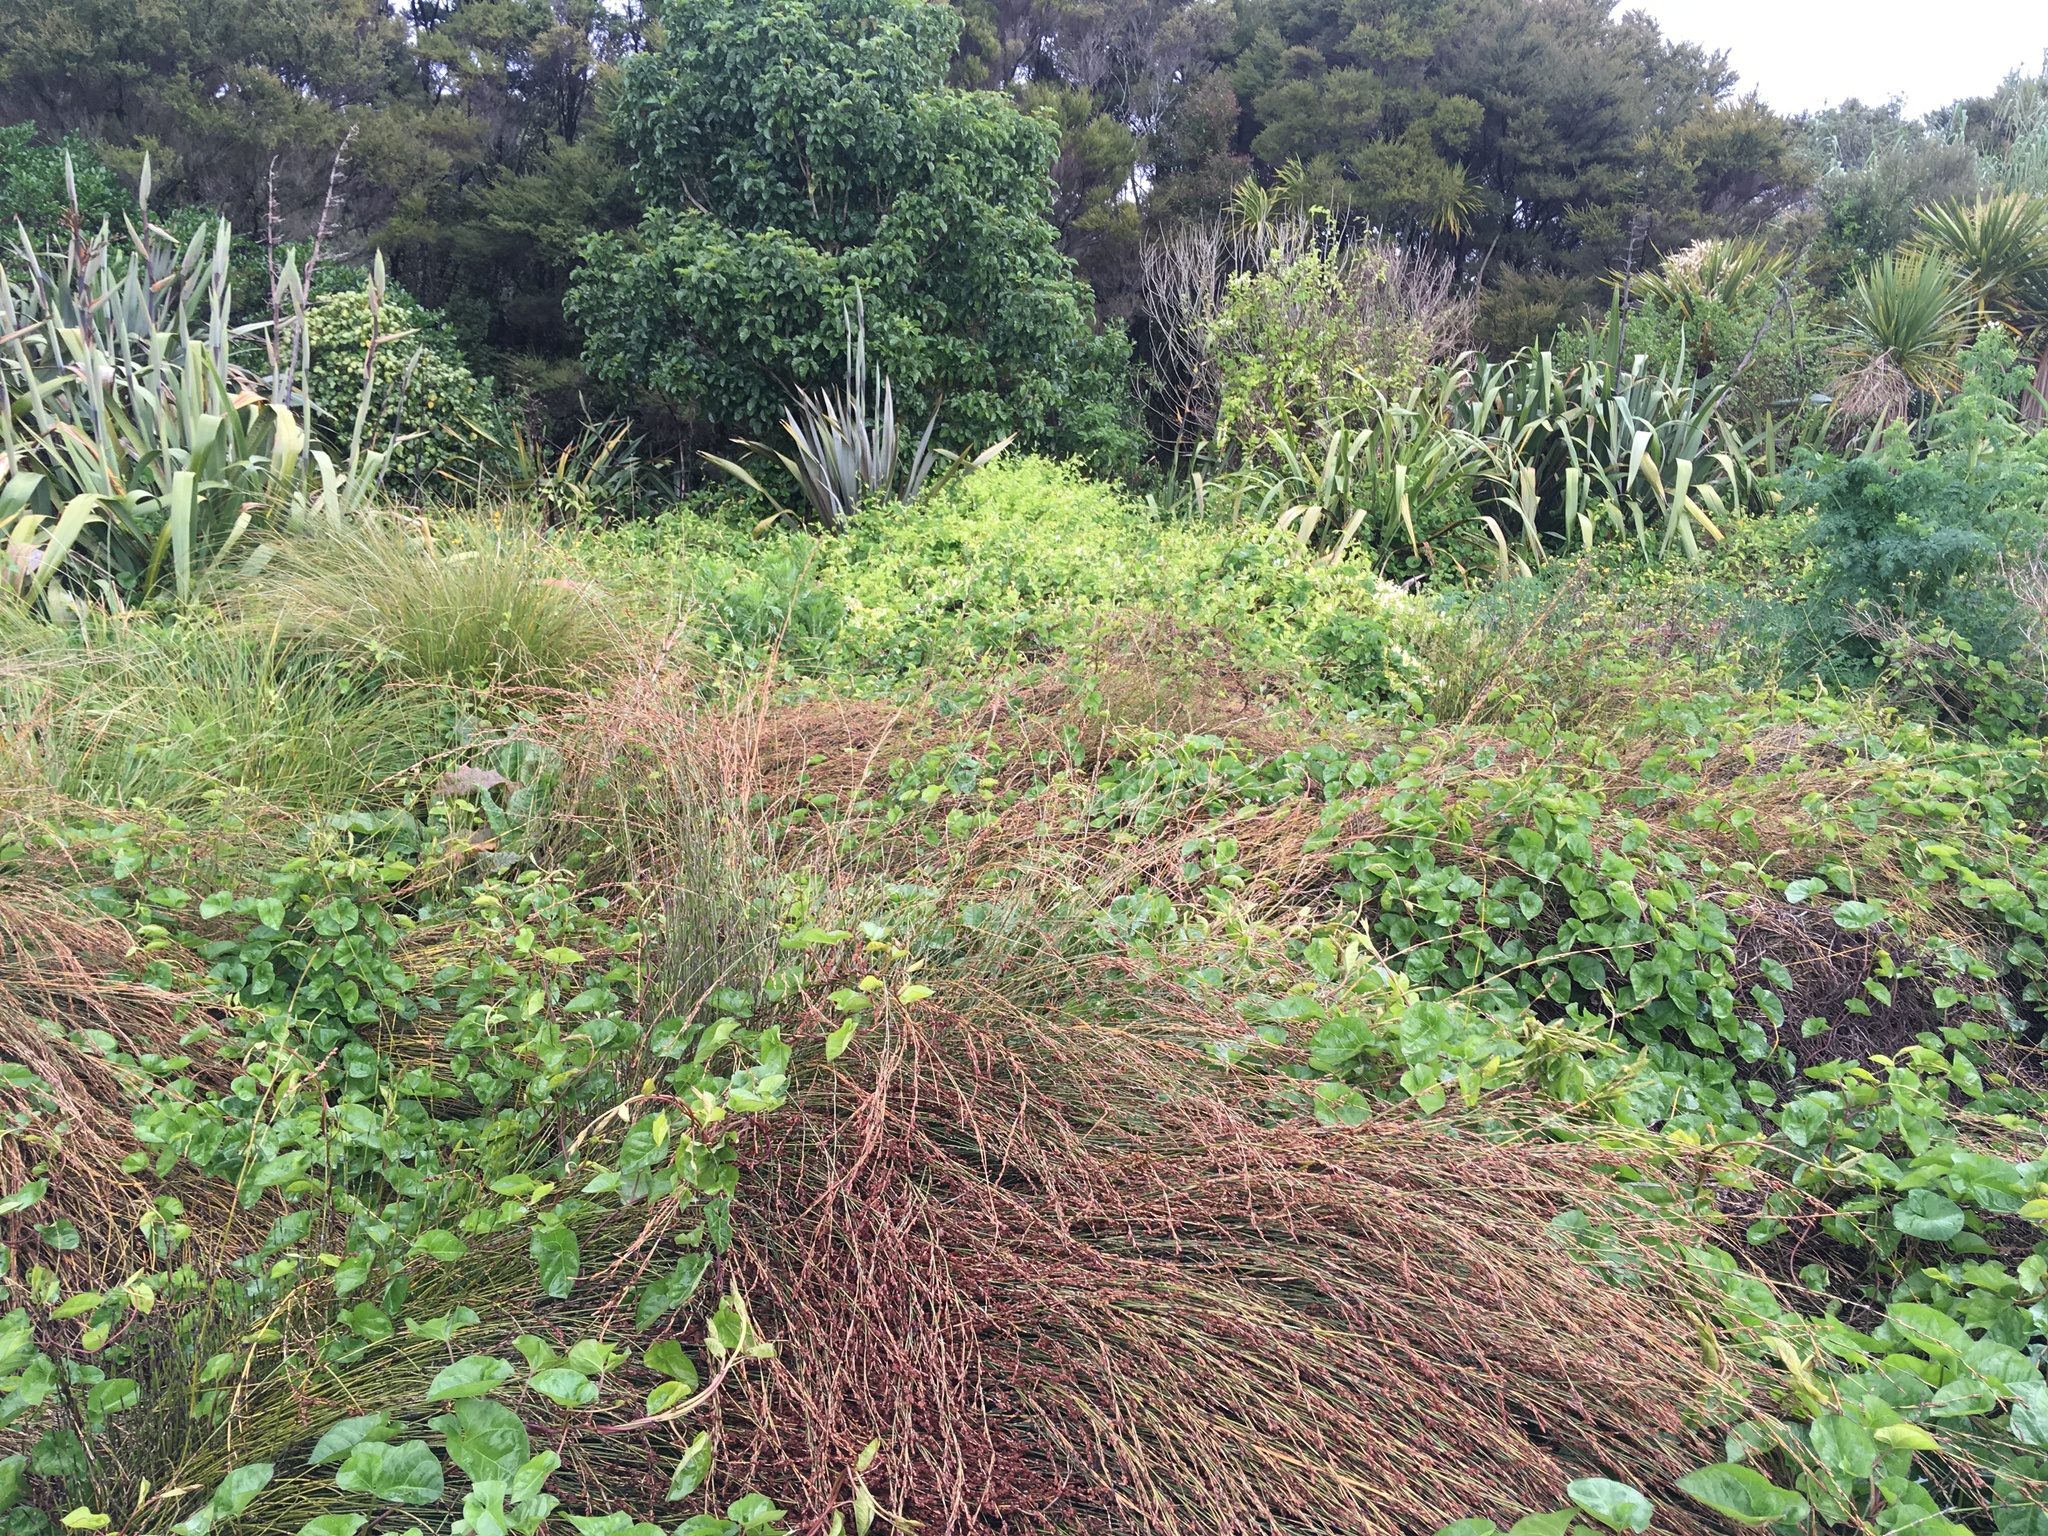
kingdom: Plantae
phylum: Tracheophyta
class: Magnoliopsida
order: Dipsacales
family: Caprifoliaceae
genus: Lonicera
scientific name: Lonicera japonica
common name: Japanese honeysuckle
